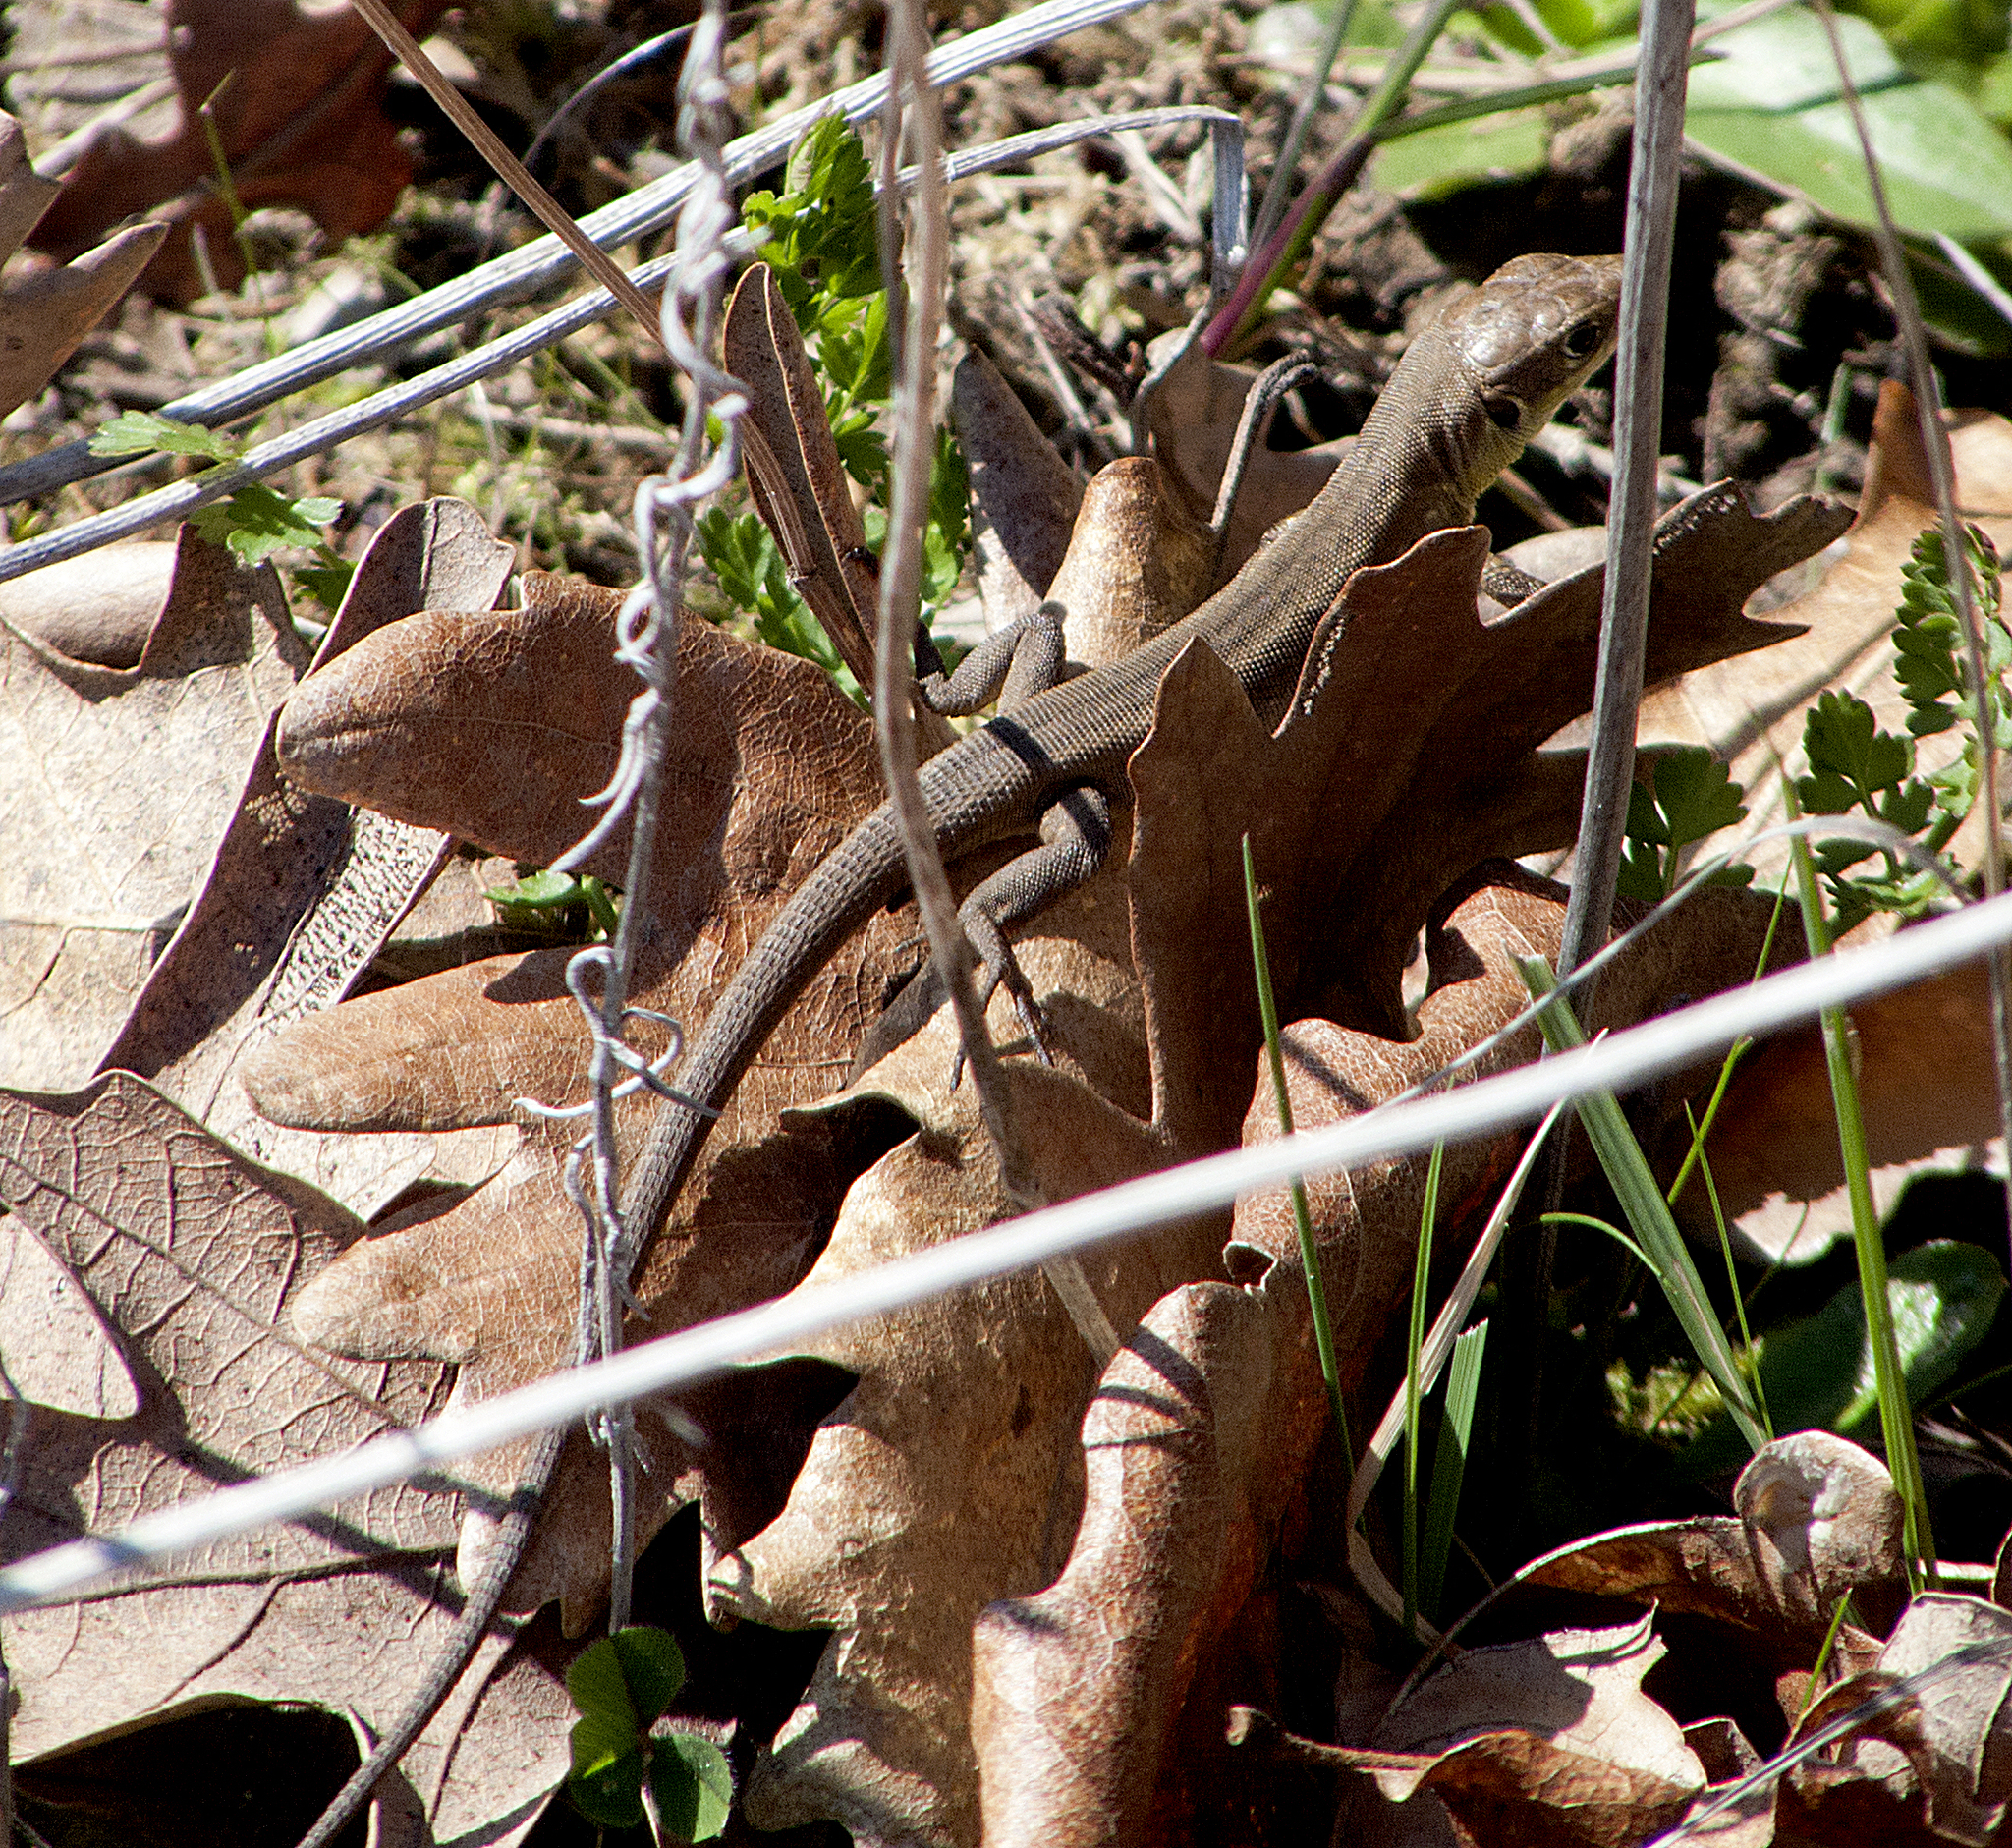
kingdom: Animalia
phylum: Chordata
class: Squamata
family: Lacertidae
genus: Lacerta
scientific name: Lacerta viridis
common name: European green lizard
